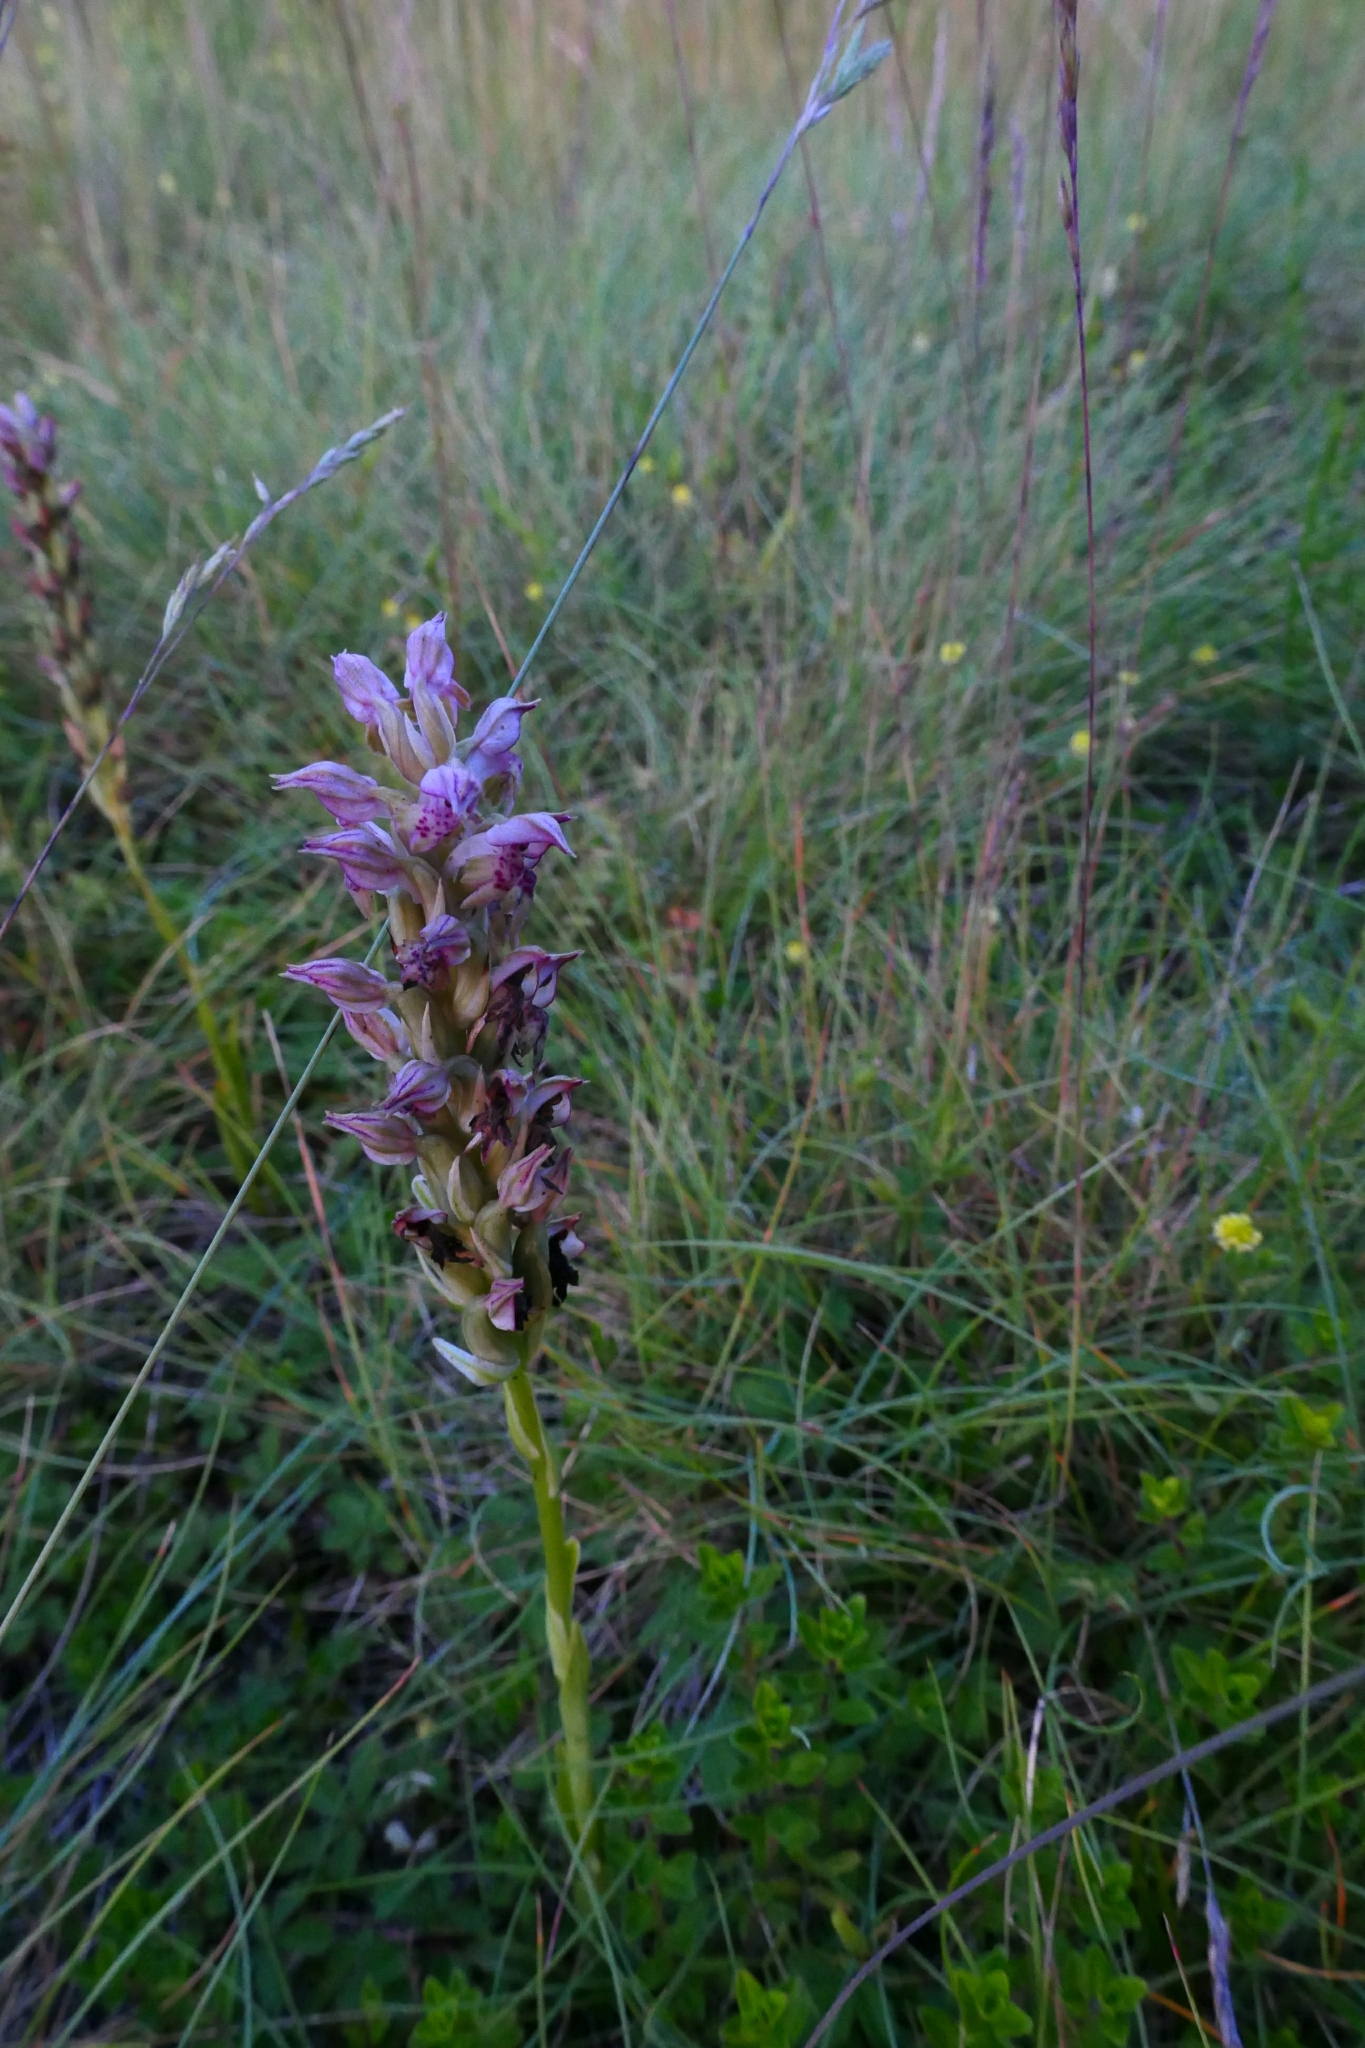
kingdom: Plantae
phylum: Tracheophyta
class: Liliopsida
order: Asparagales
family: Orchidaceae
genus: Anacamptis
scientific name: Anacamptis coriophora
